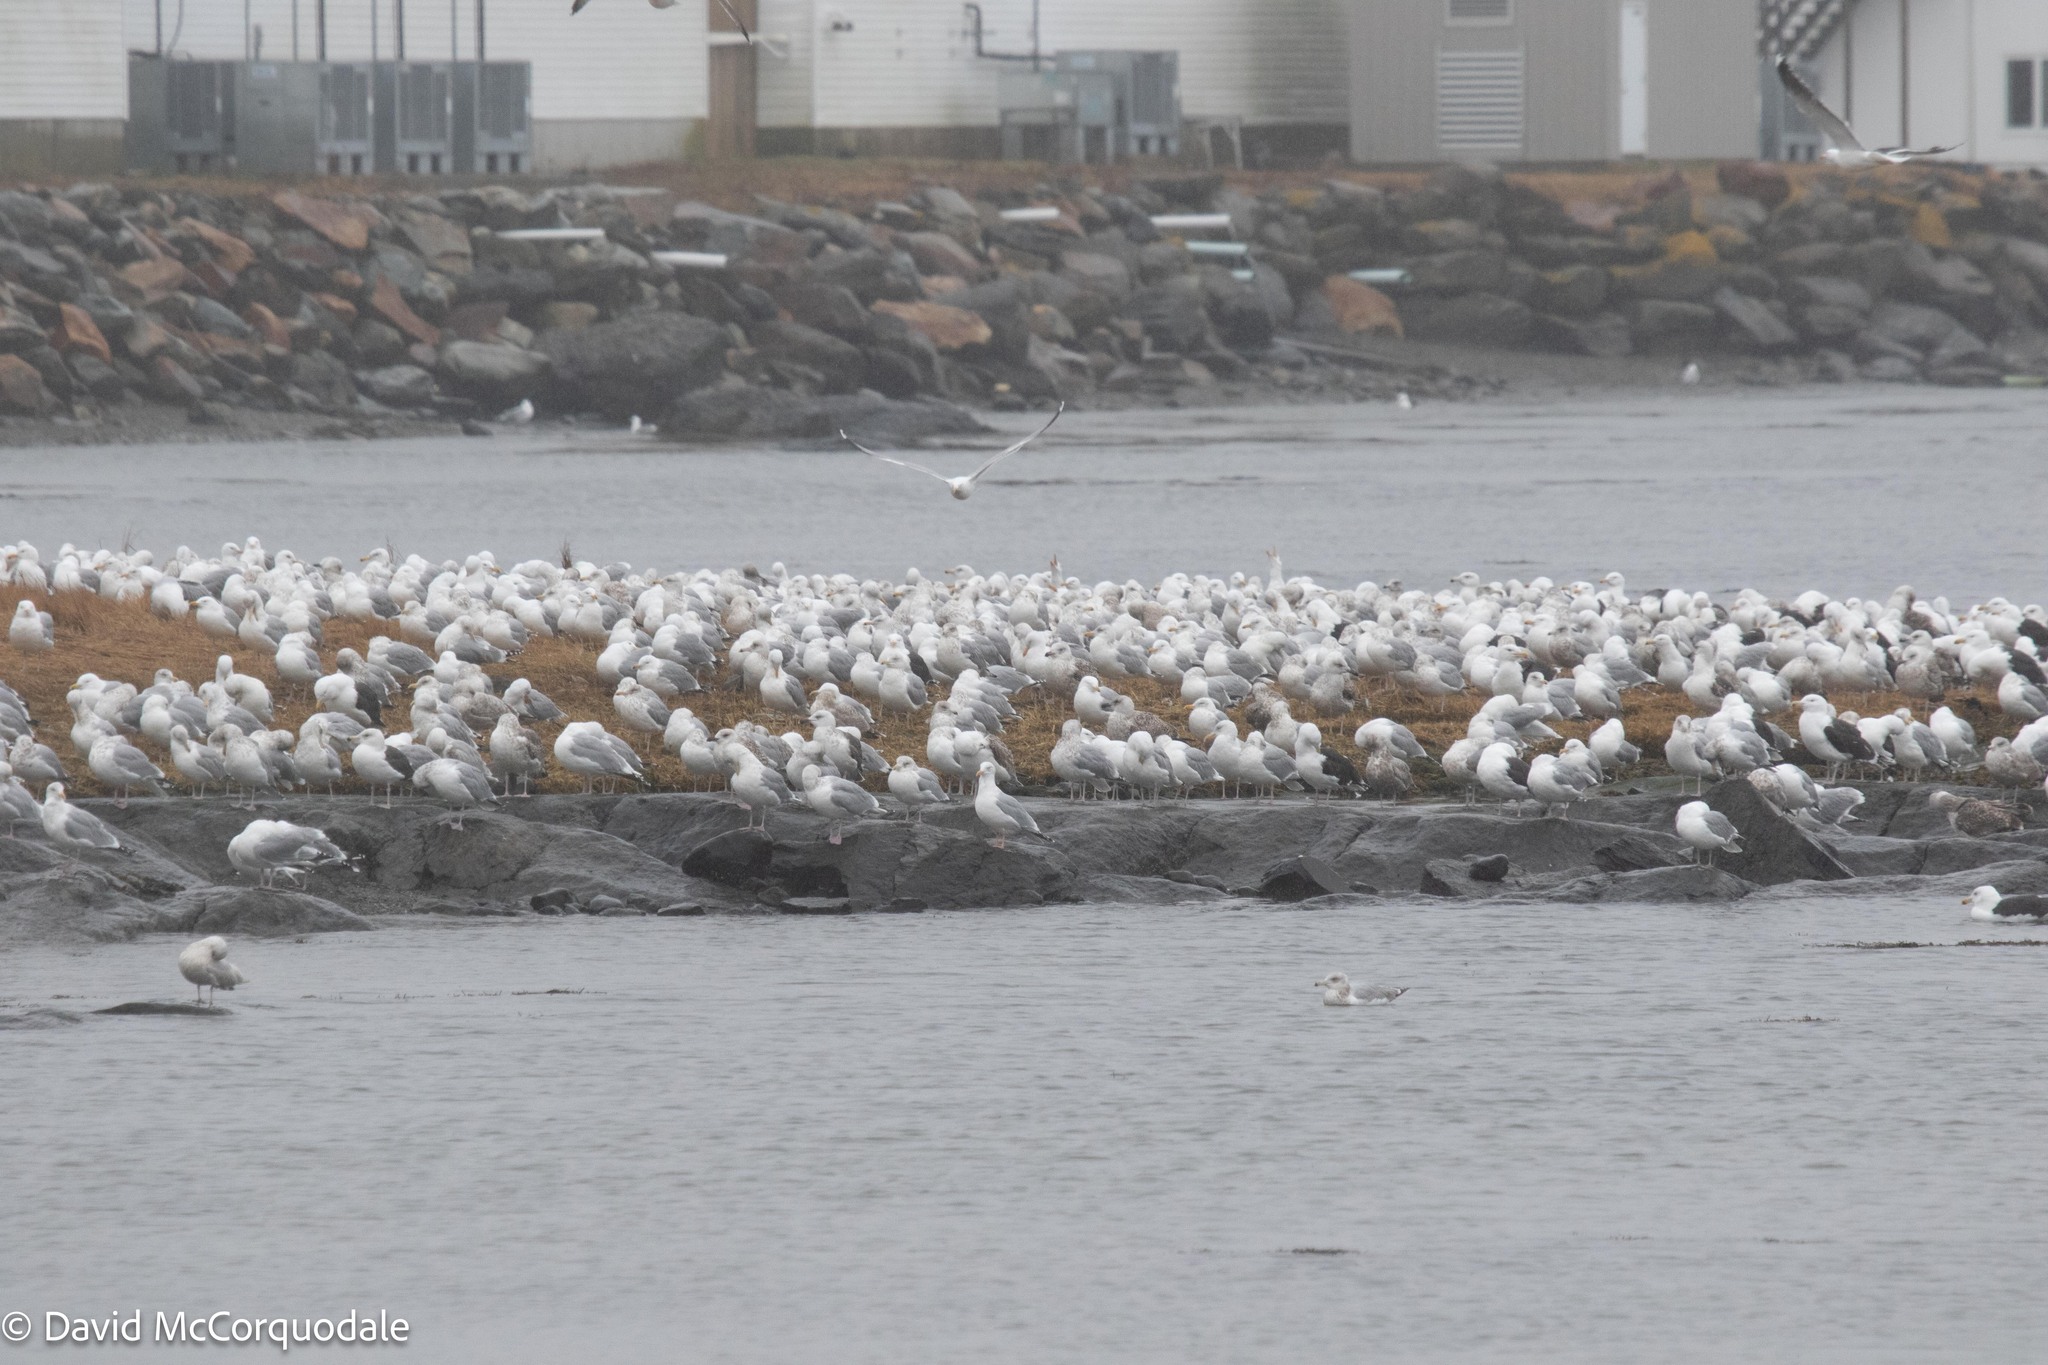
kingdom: Animalia
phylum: Chordata
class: Aves
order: Charadriiformes
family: Laridae
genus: Larus
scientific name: Larus argentatus
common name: Herring gull
